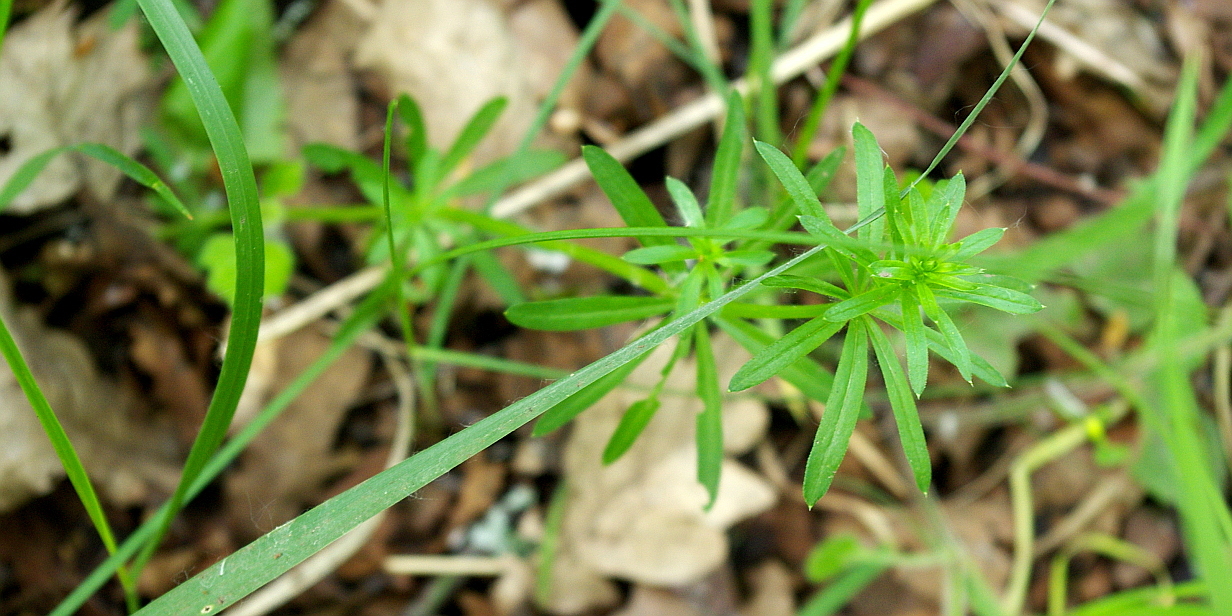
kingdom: Plantae
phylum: Tracheophyta
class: Magnoliopsida
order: Gentianales
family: Rubiaceae
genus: Galium
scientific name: Galium mollugo
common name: Hedge bedstraw
